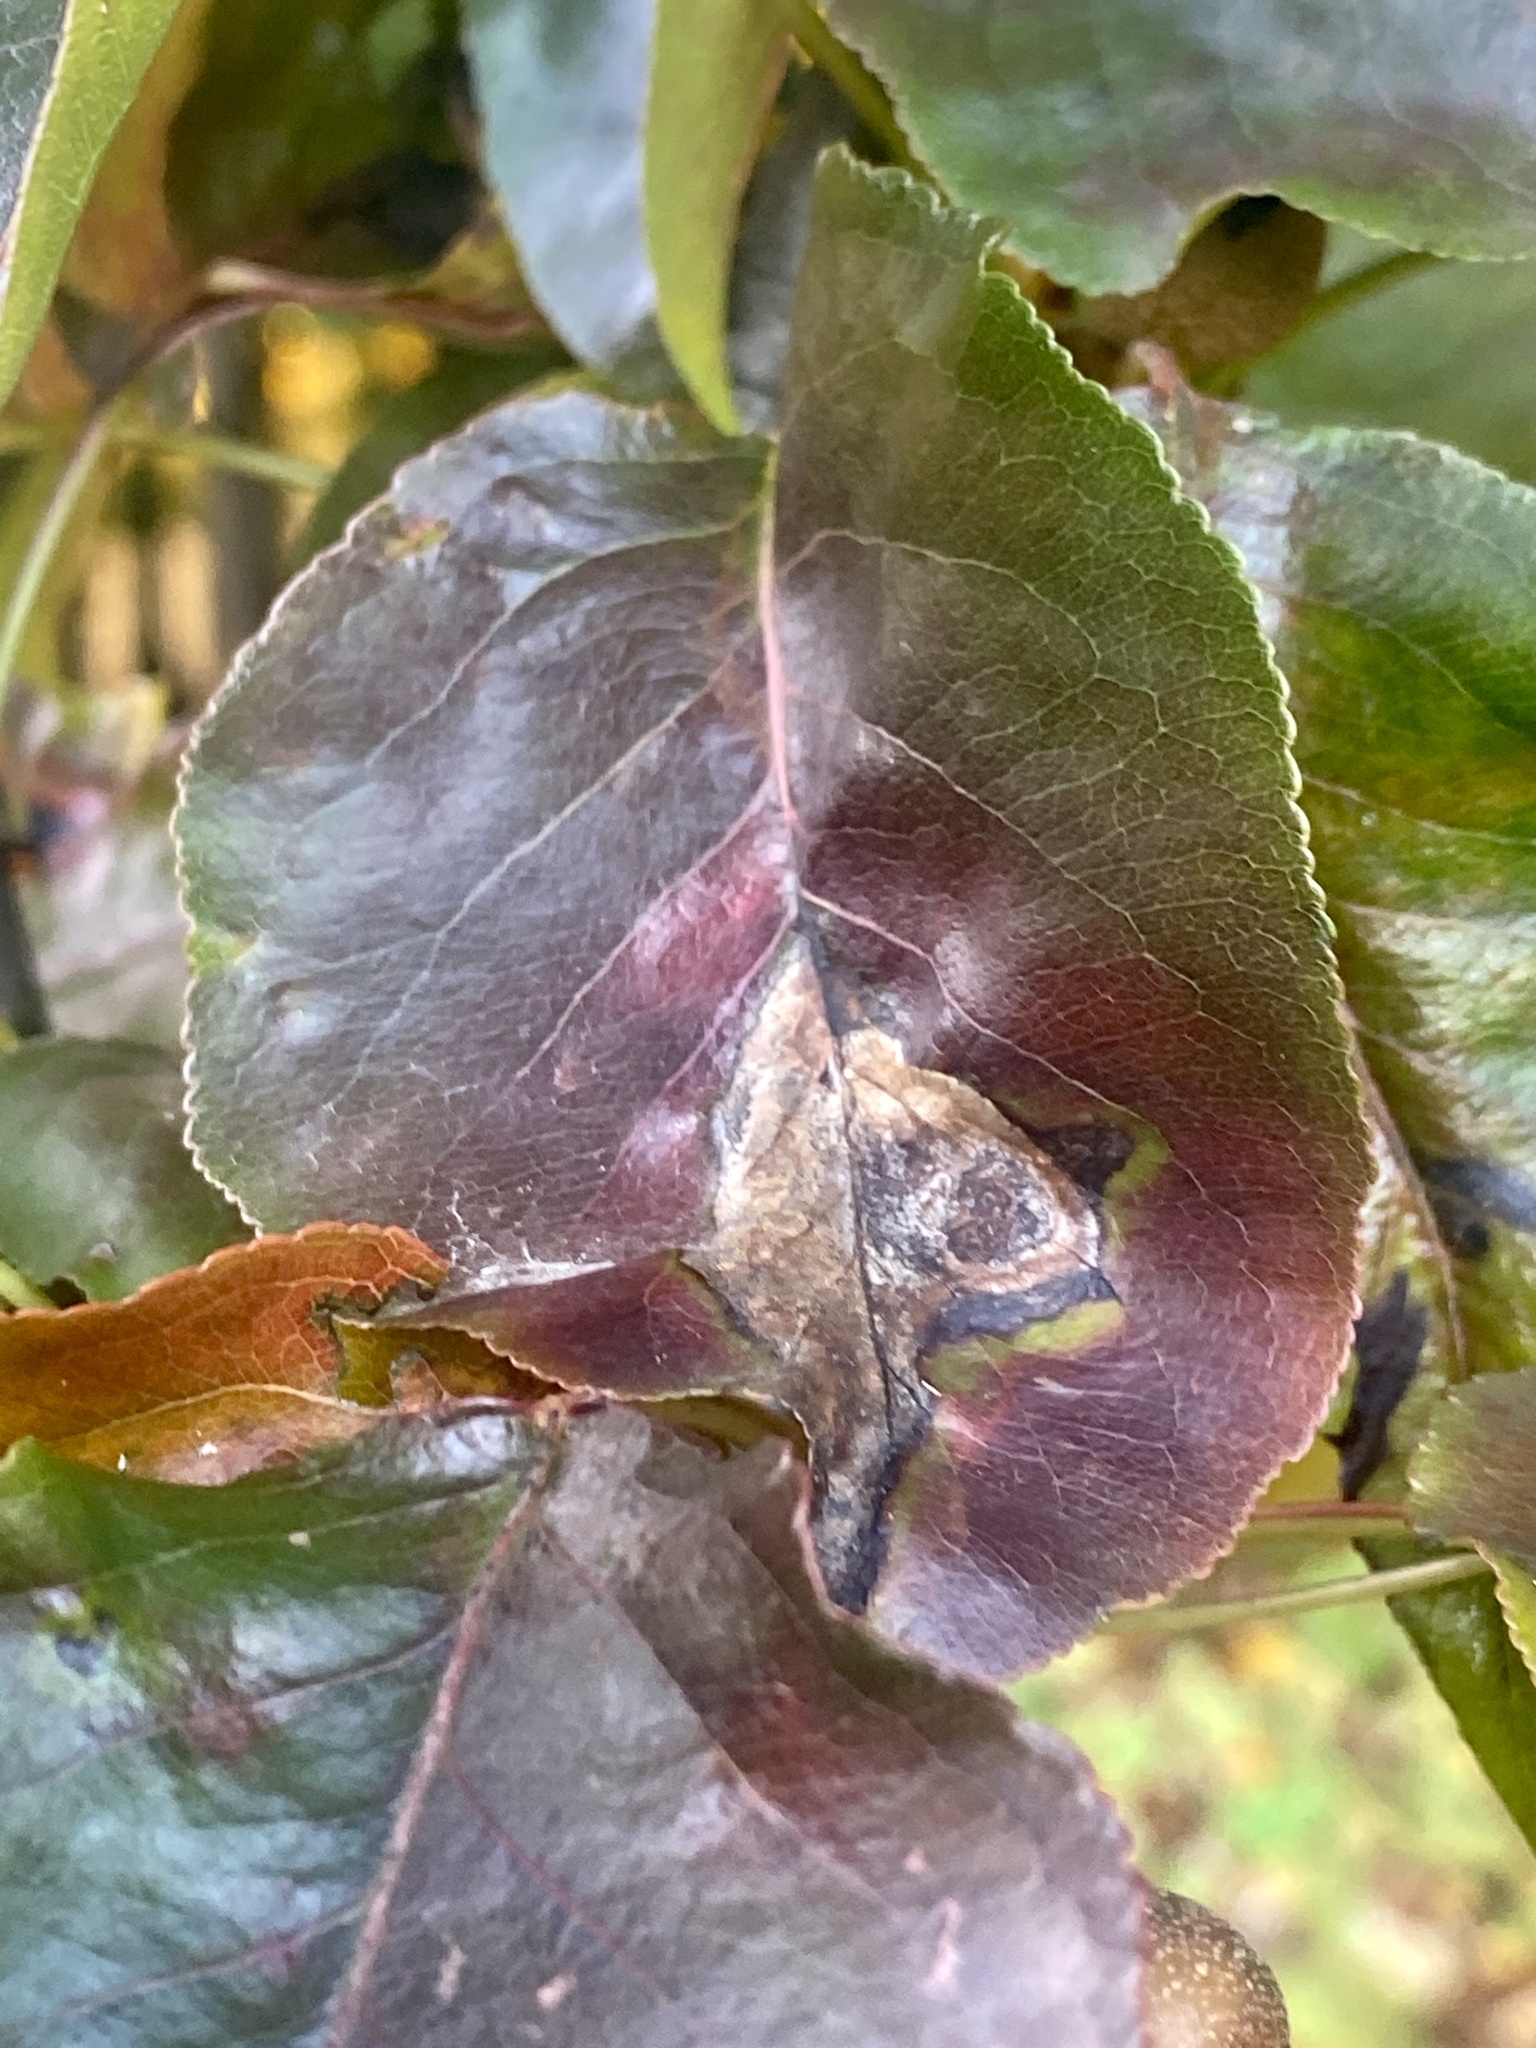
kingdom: Fungi
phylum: Basidiomycota
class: Pucciniomycetes
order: Pucciniales
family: Gymnosporangiaceae
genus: Gymnosporangium
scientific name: Gymnosporangium sabinae
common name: Pear trellis rust fungus
